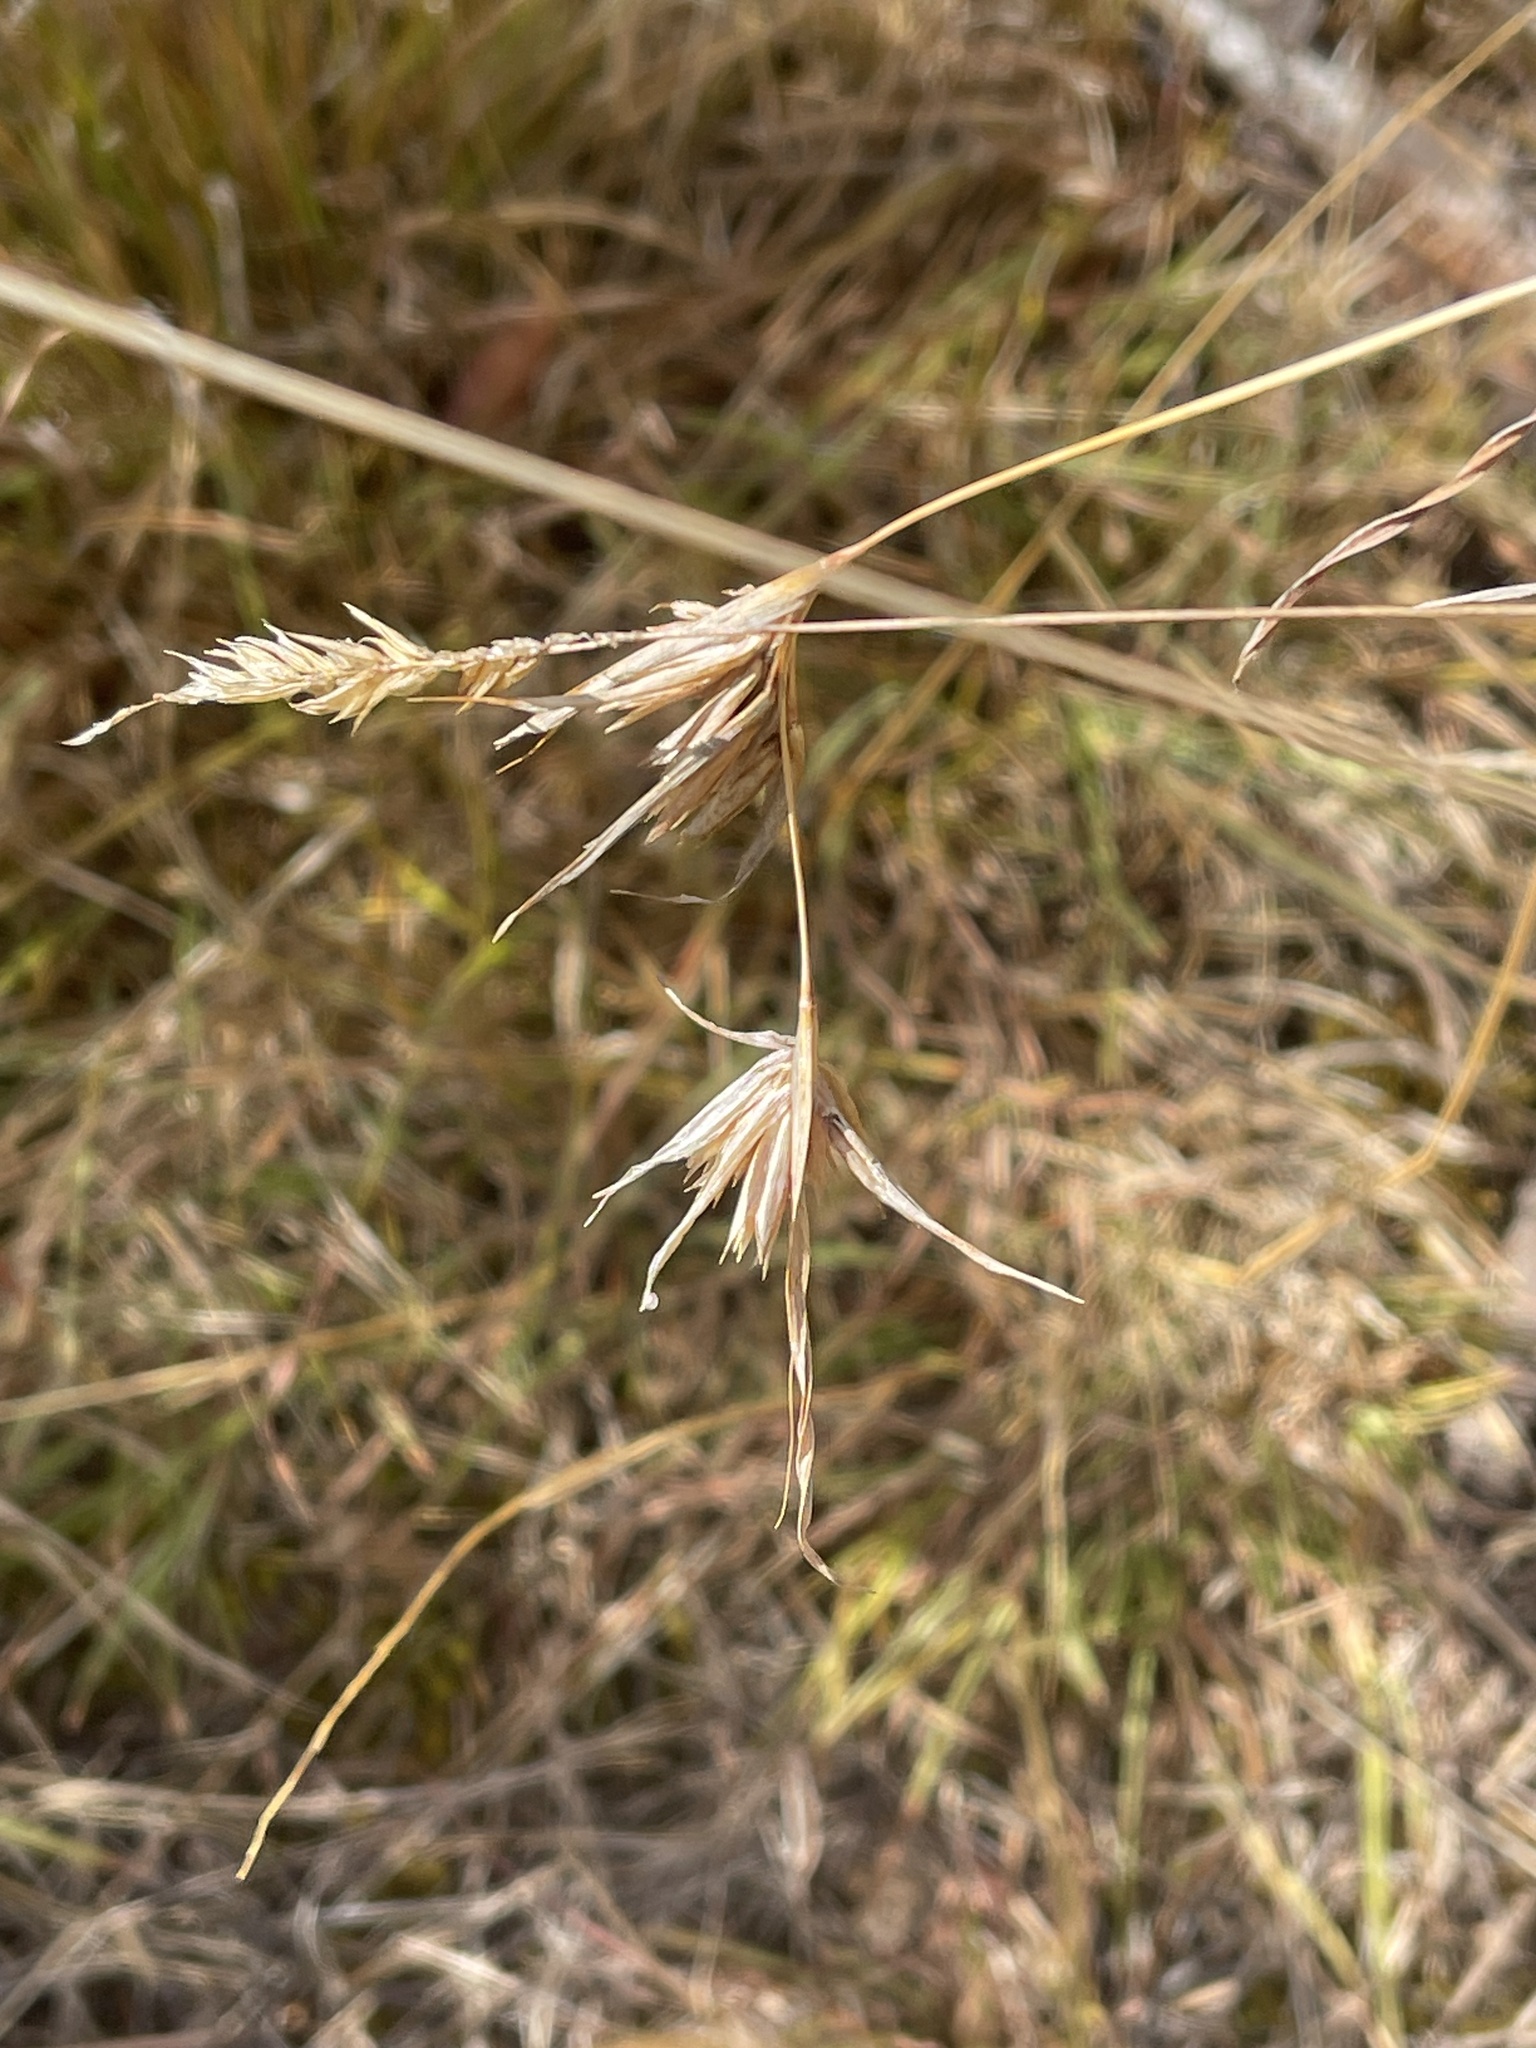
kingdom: Plantae
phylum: Tracheophyta
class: Liliopsida
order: Poales
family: Poaceae
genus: Themeda
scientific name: Themeda triandra
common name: Kangaroo grass
